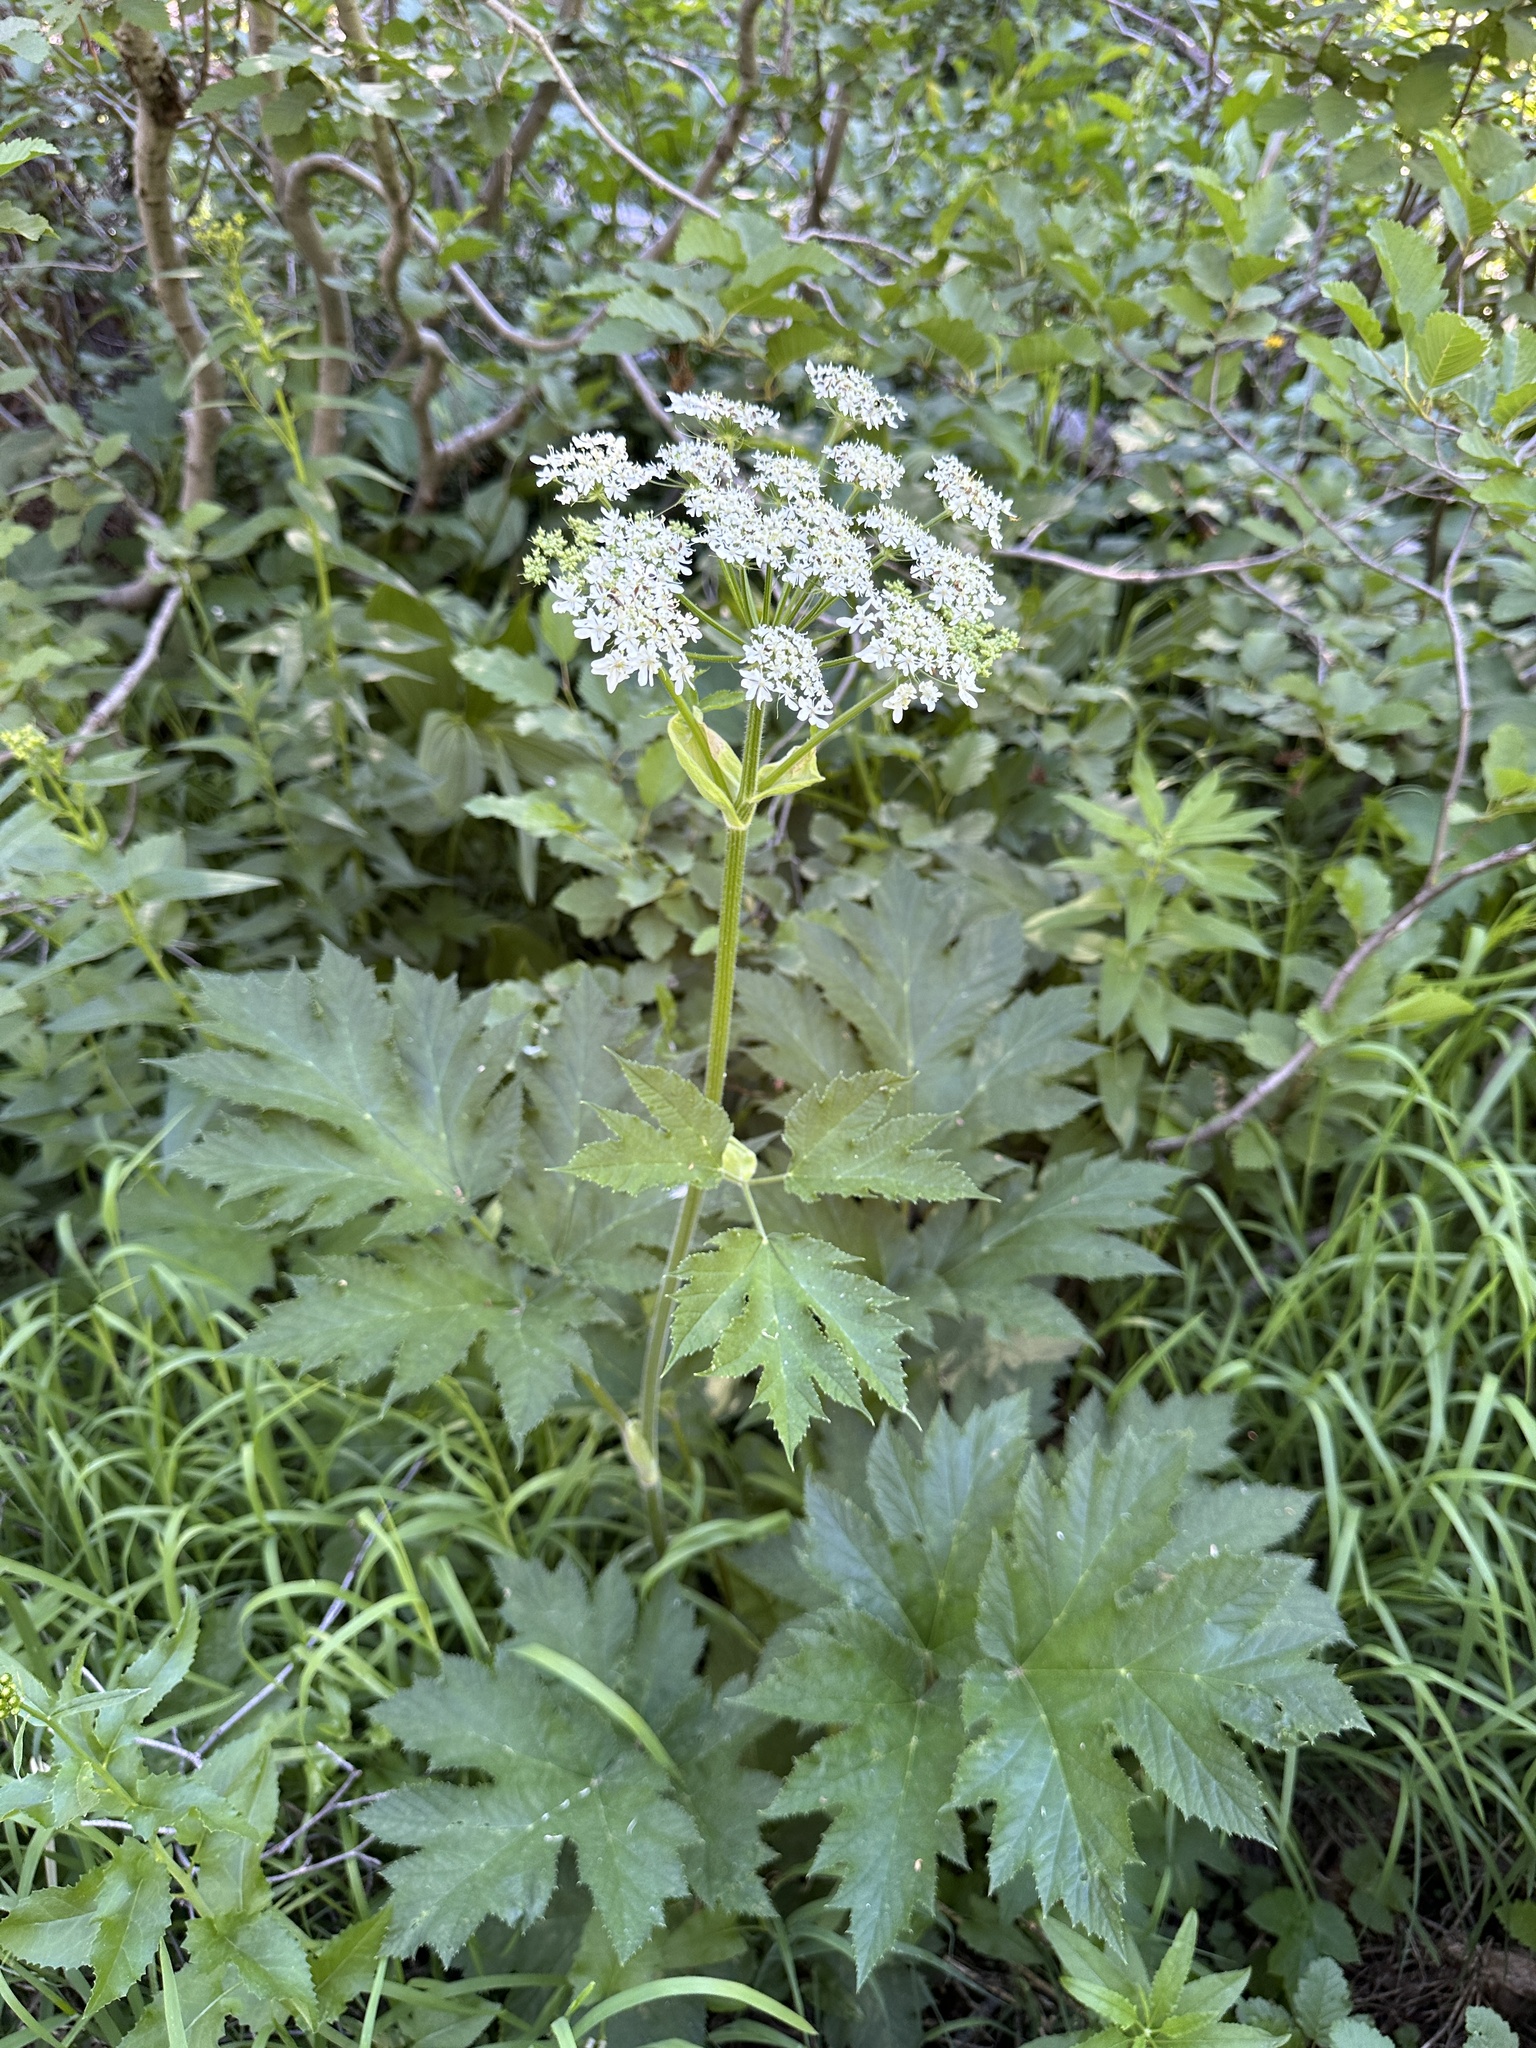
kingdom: Plantae
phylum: Tracheophyta
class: Magnoliopsida
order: Apiales
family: Apiaceae
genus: Heracleum
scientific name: Heracleum maximum
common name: American cow parsnip
